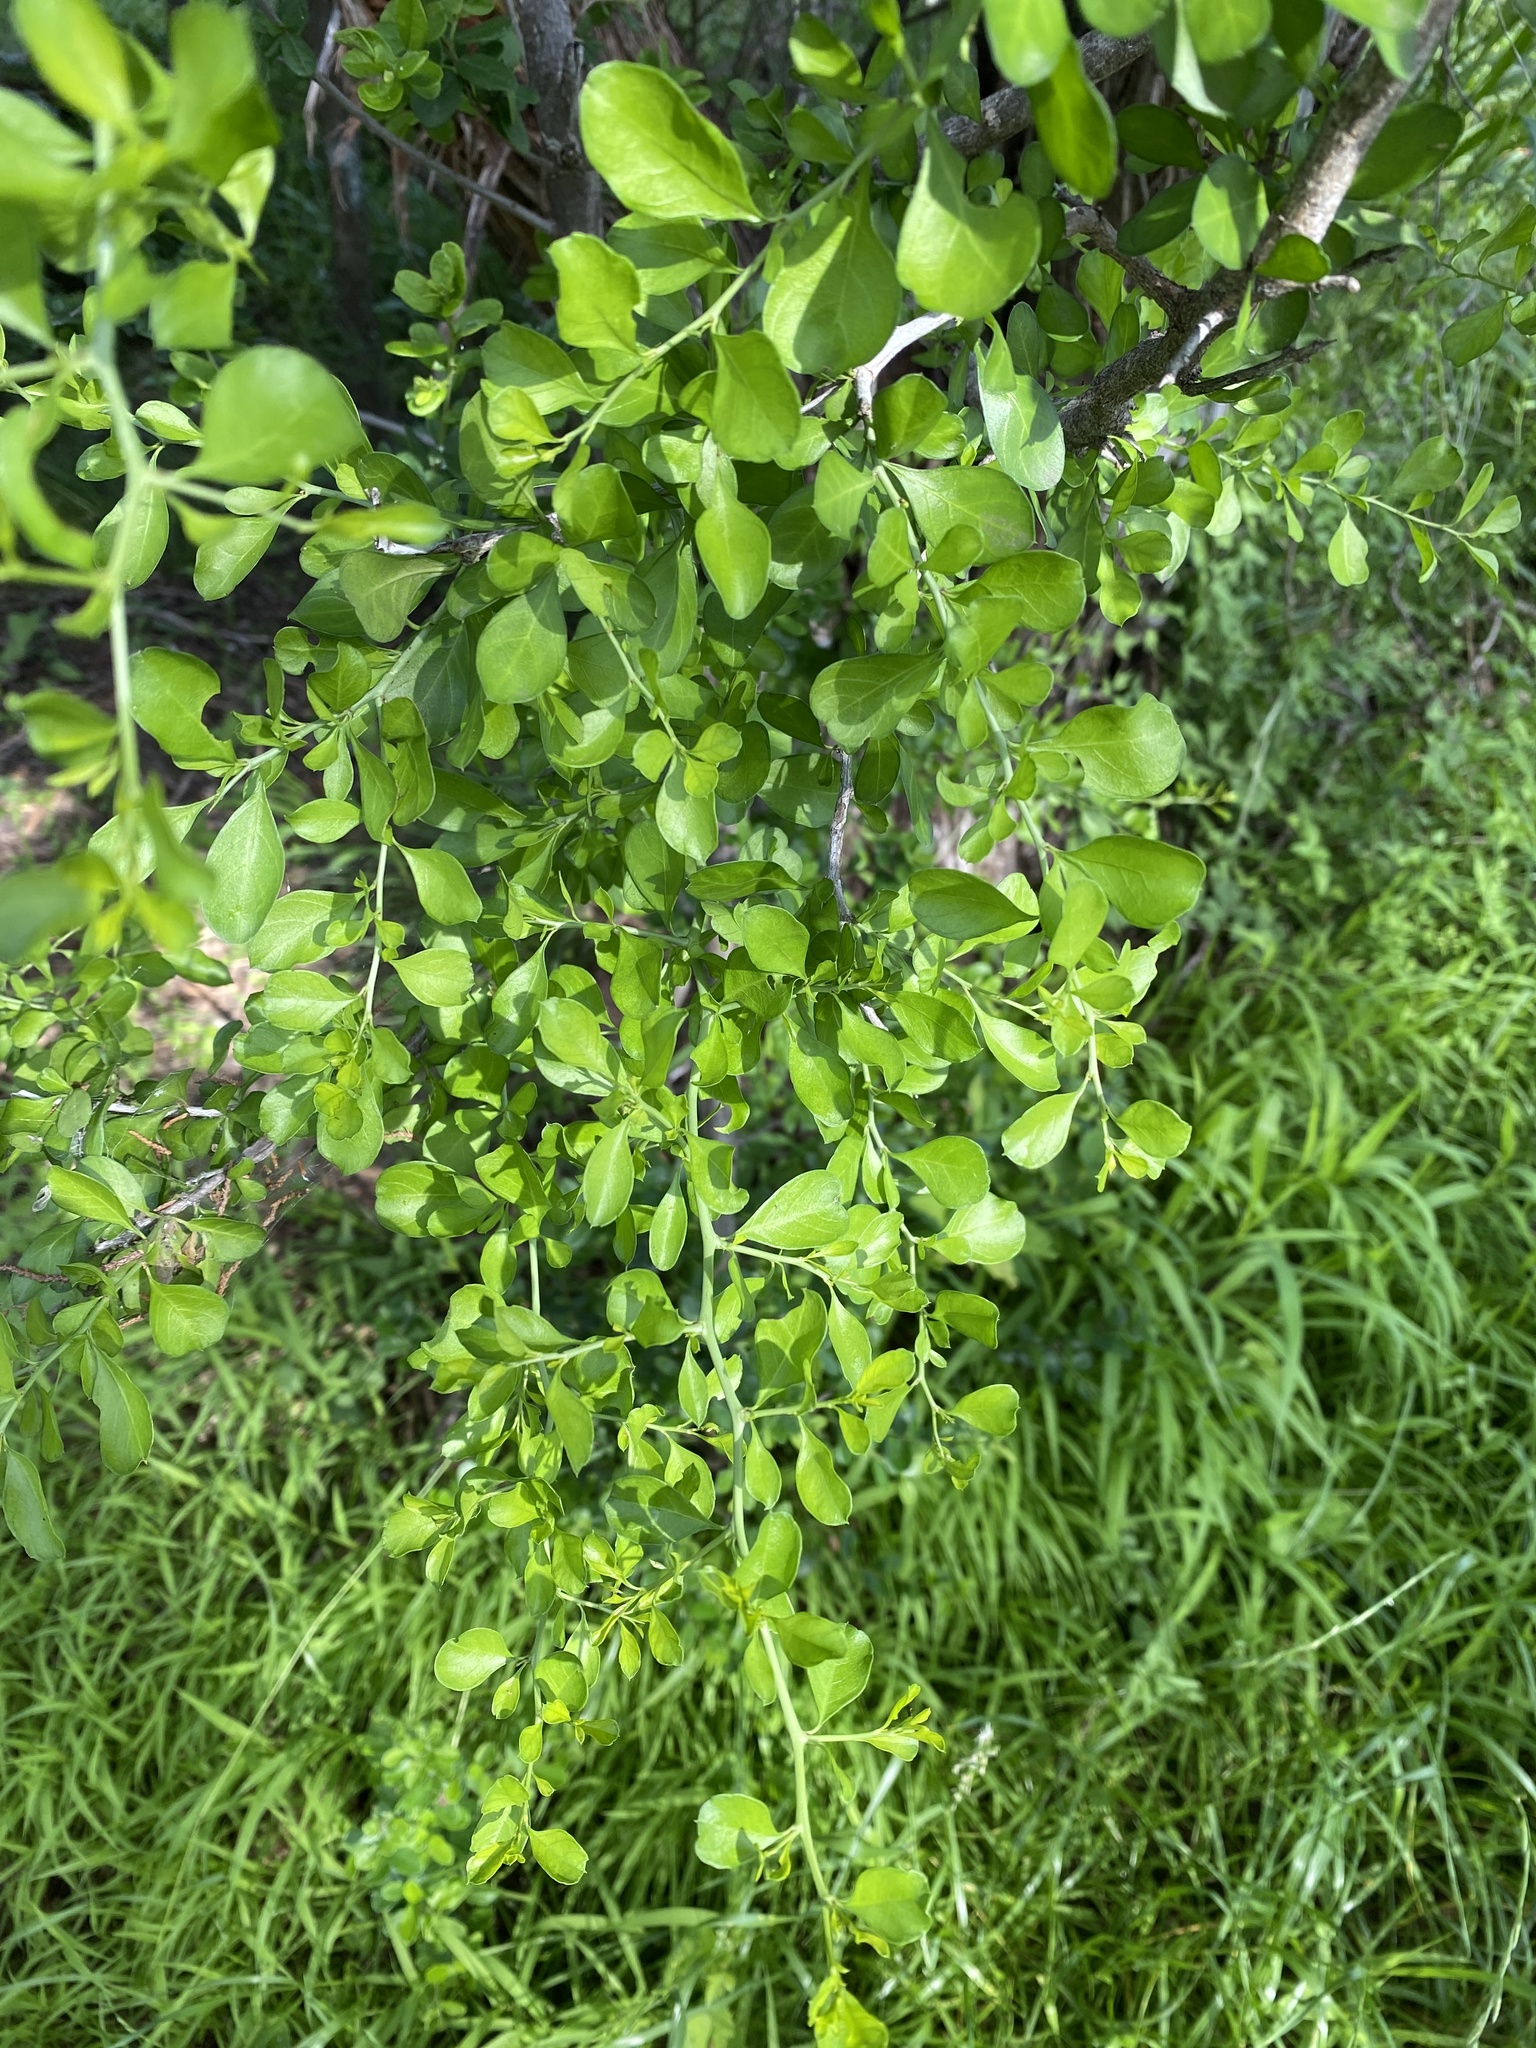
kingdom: Plantae
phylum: Tracheophyta
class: Magnoliopsida
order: Rosales
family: Rhamnaceae
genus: Condalia
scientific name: Condalia hookeri
